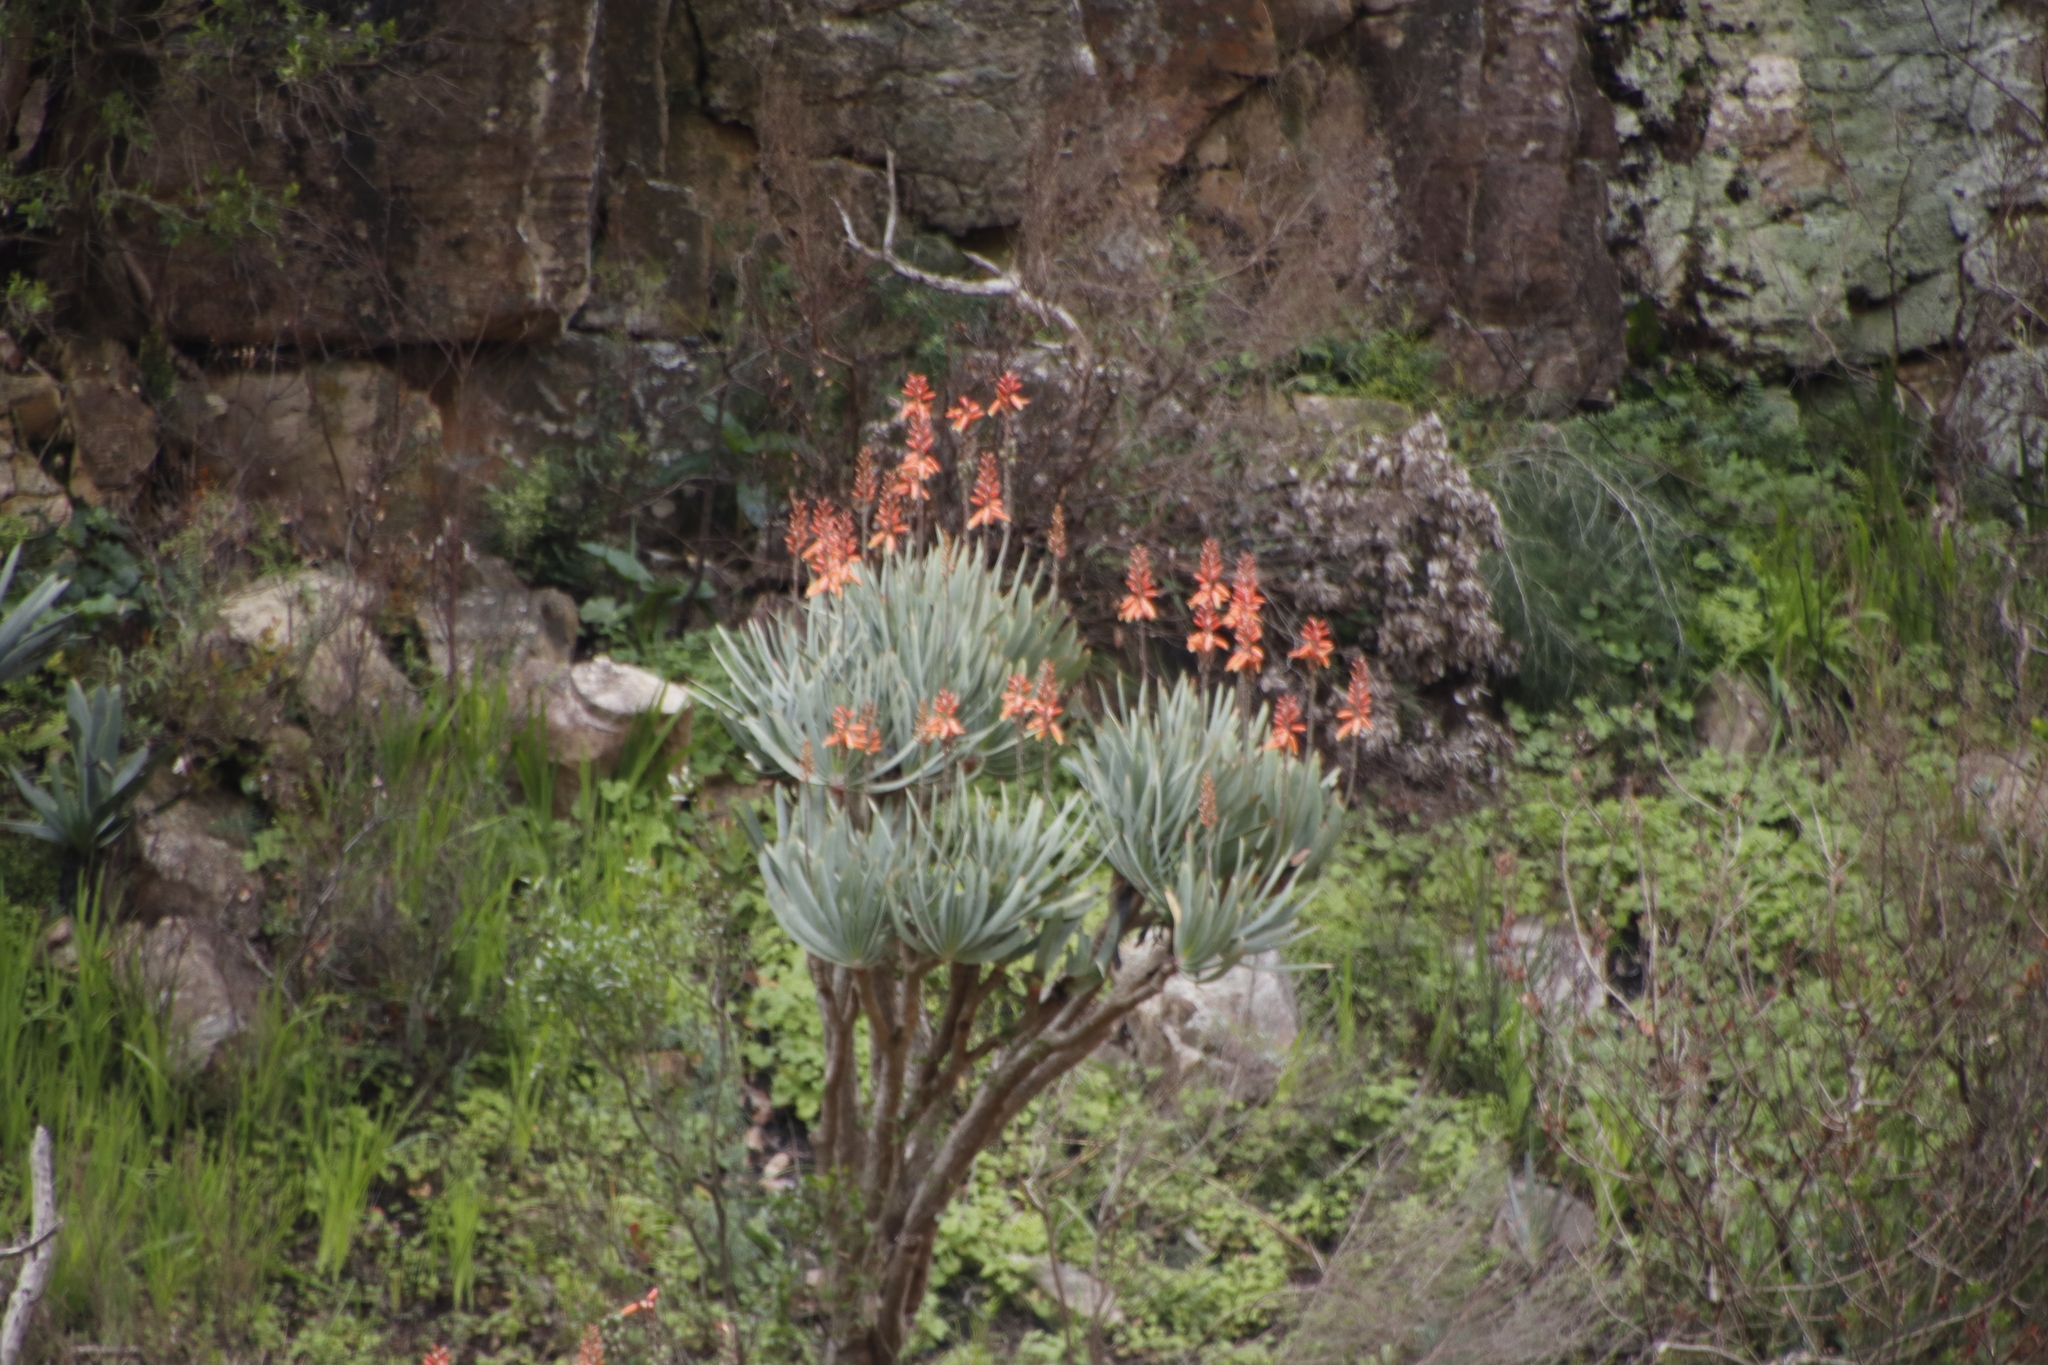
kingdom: Plantae
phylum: Tracheophyta
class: Liliopsida
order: Asparagales
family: Asphodelaceae
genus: Kumara
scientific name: Kumara plicatilis
